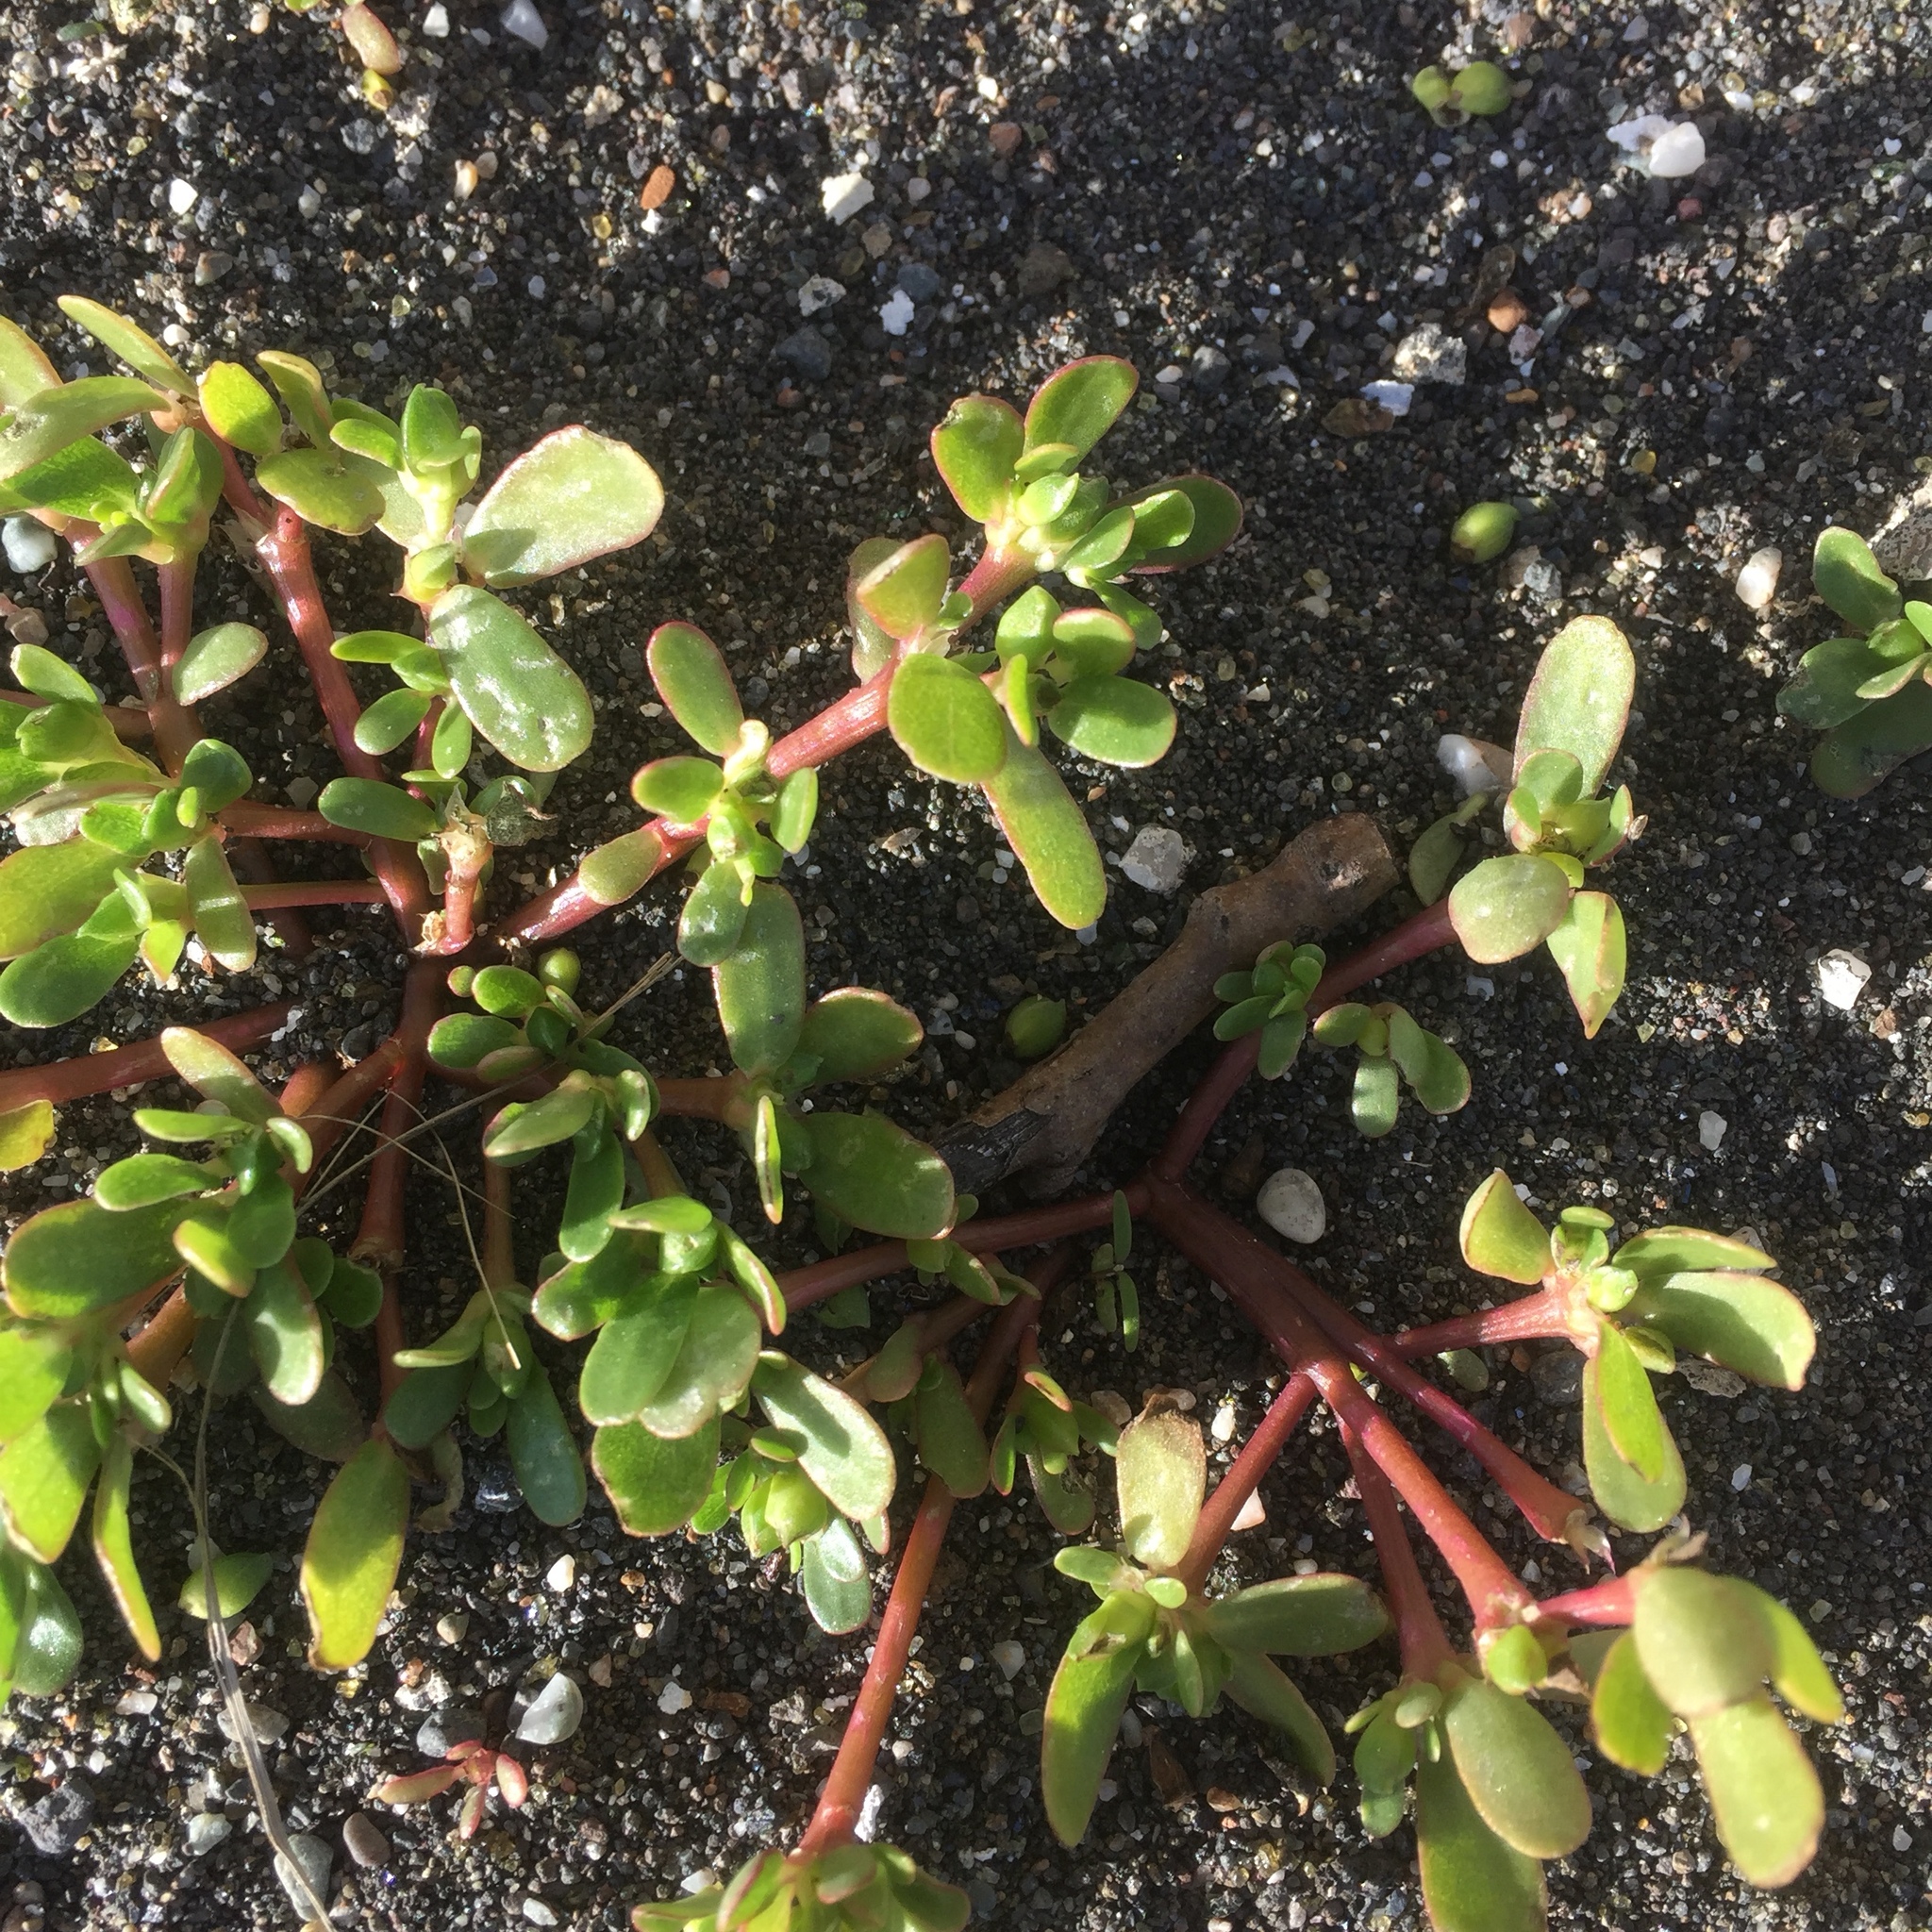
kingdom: Plantae
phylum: Tracheophyta
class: Magnoliopsida
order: Caryophyllales
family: Portulacaceae
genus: Portulaca
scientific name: Portulaca oleracea
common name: Common purslane
